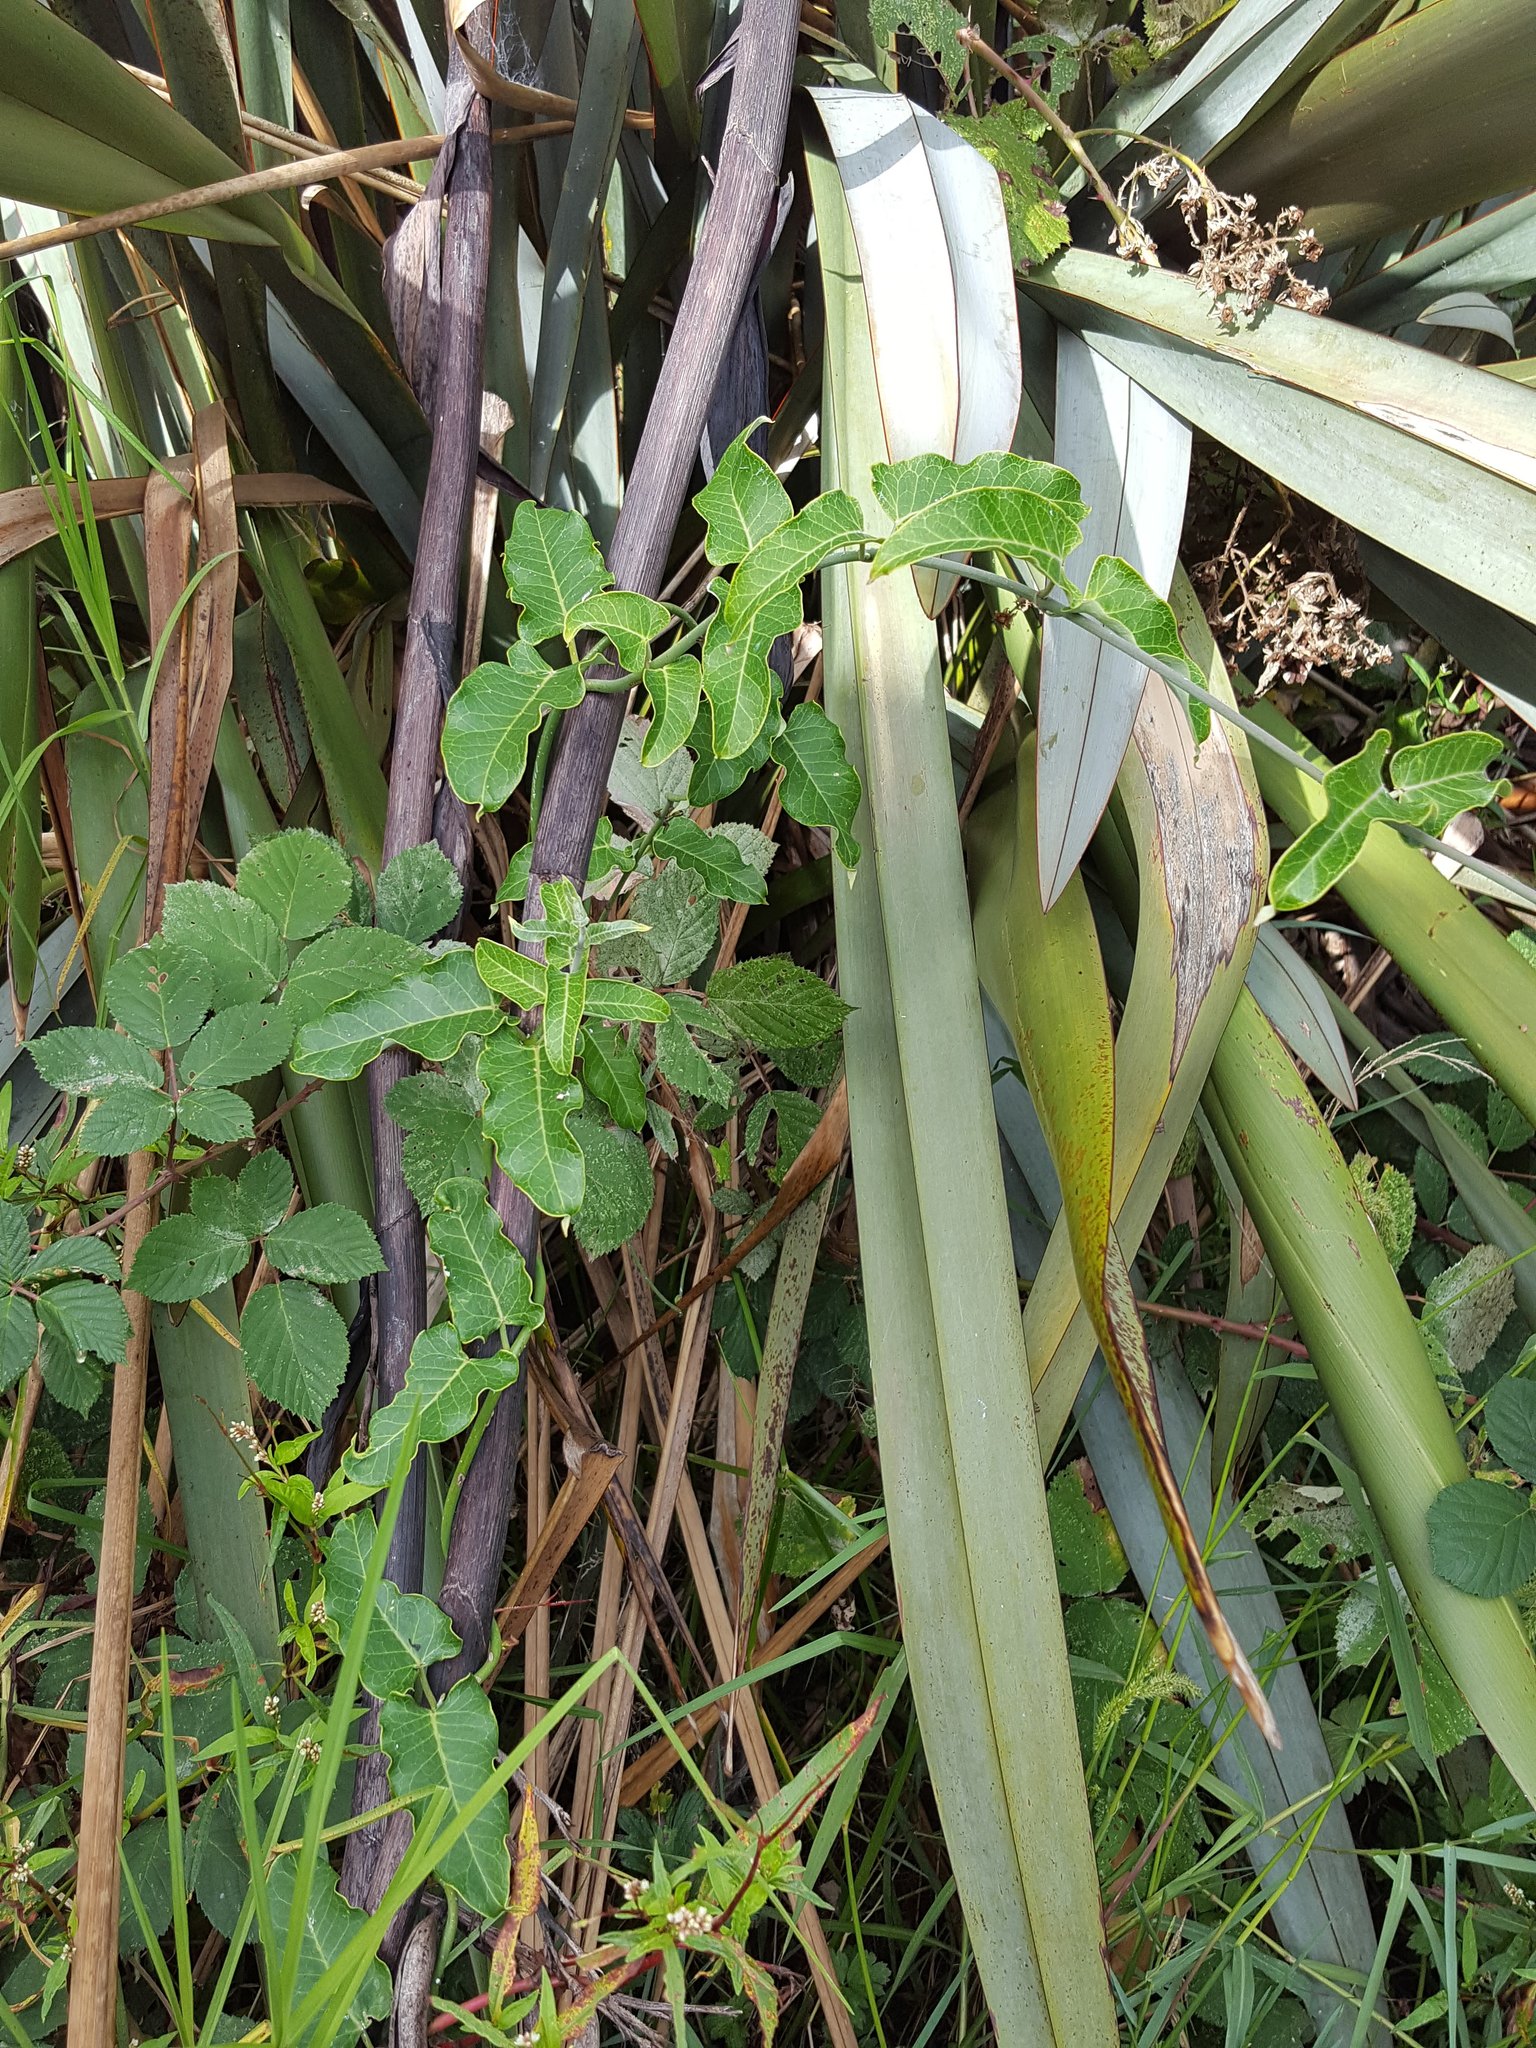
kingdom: Plantae
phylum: Tracheophyta
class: Magnoliopsida
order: Gentianales
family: Apocynaceae
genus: Araujia
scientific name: Araujia sericifera
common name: White bladderflower
